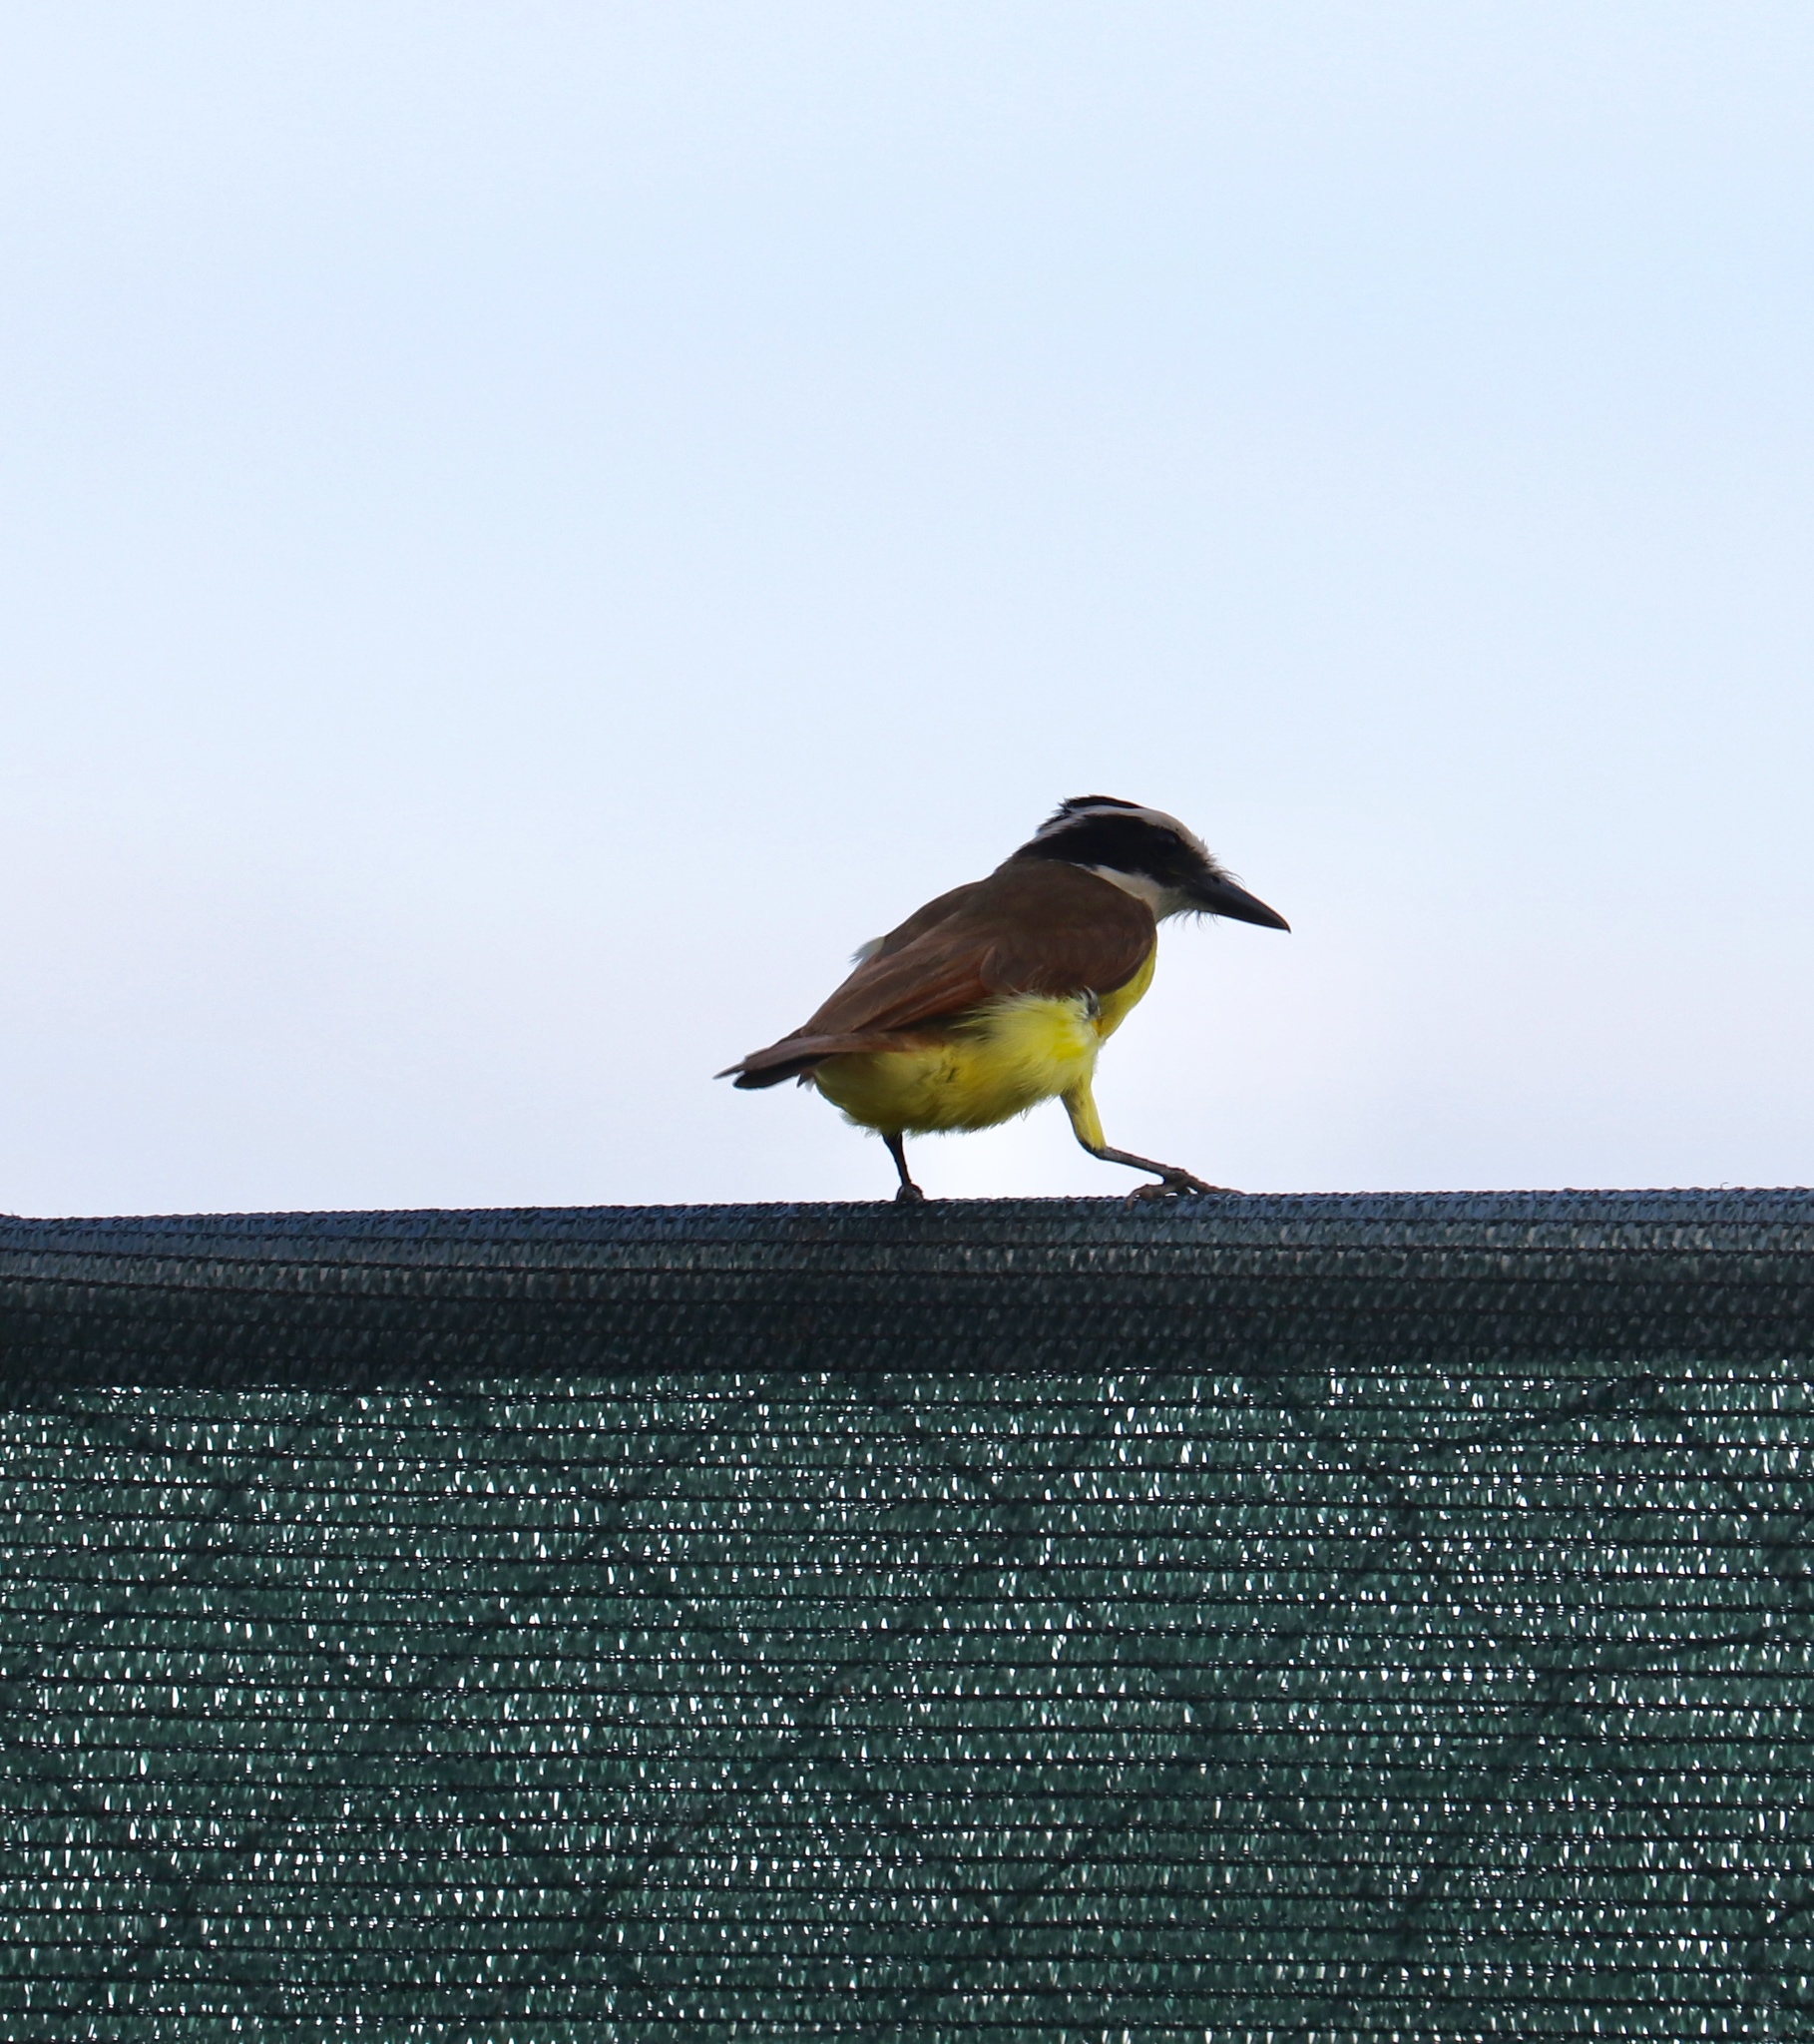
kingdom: Animalia
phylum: Chordata
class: Aves
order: Passeriformes
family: Tyrannidae
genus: Pitangus
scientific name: Pitangus sulphuratus
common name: Great kiskadee
